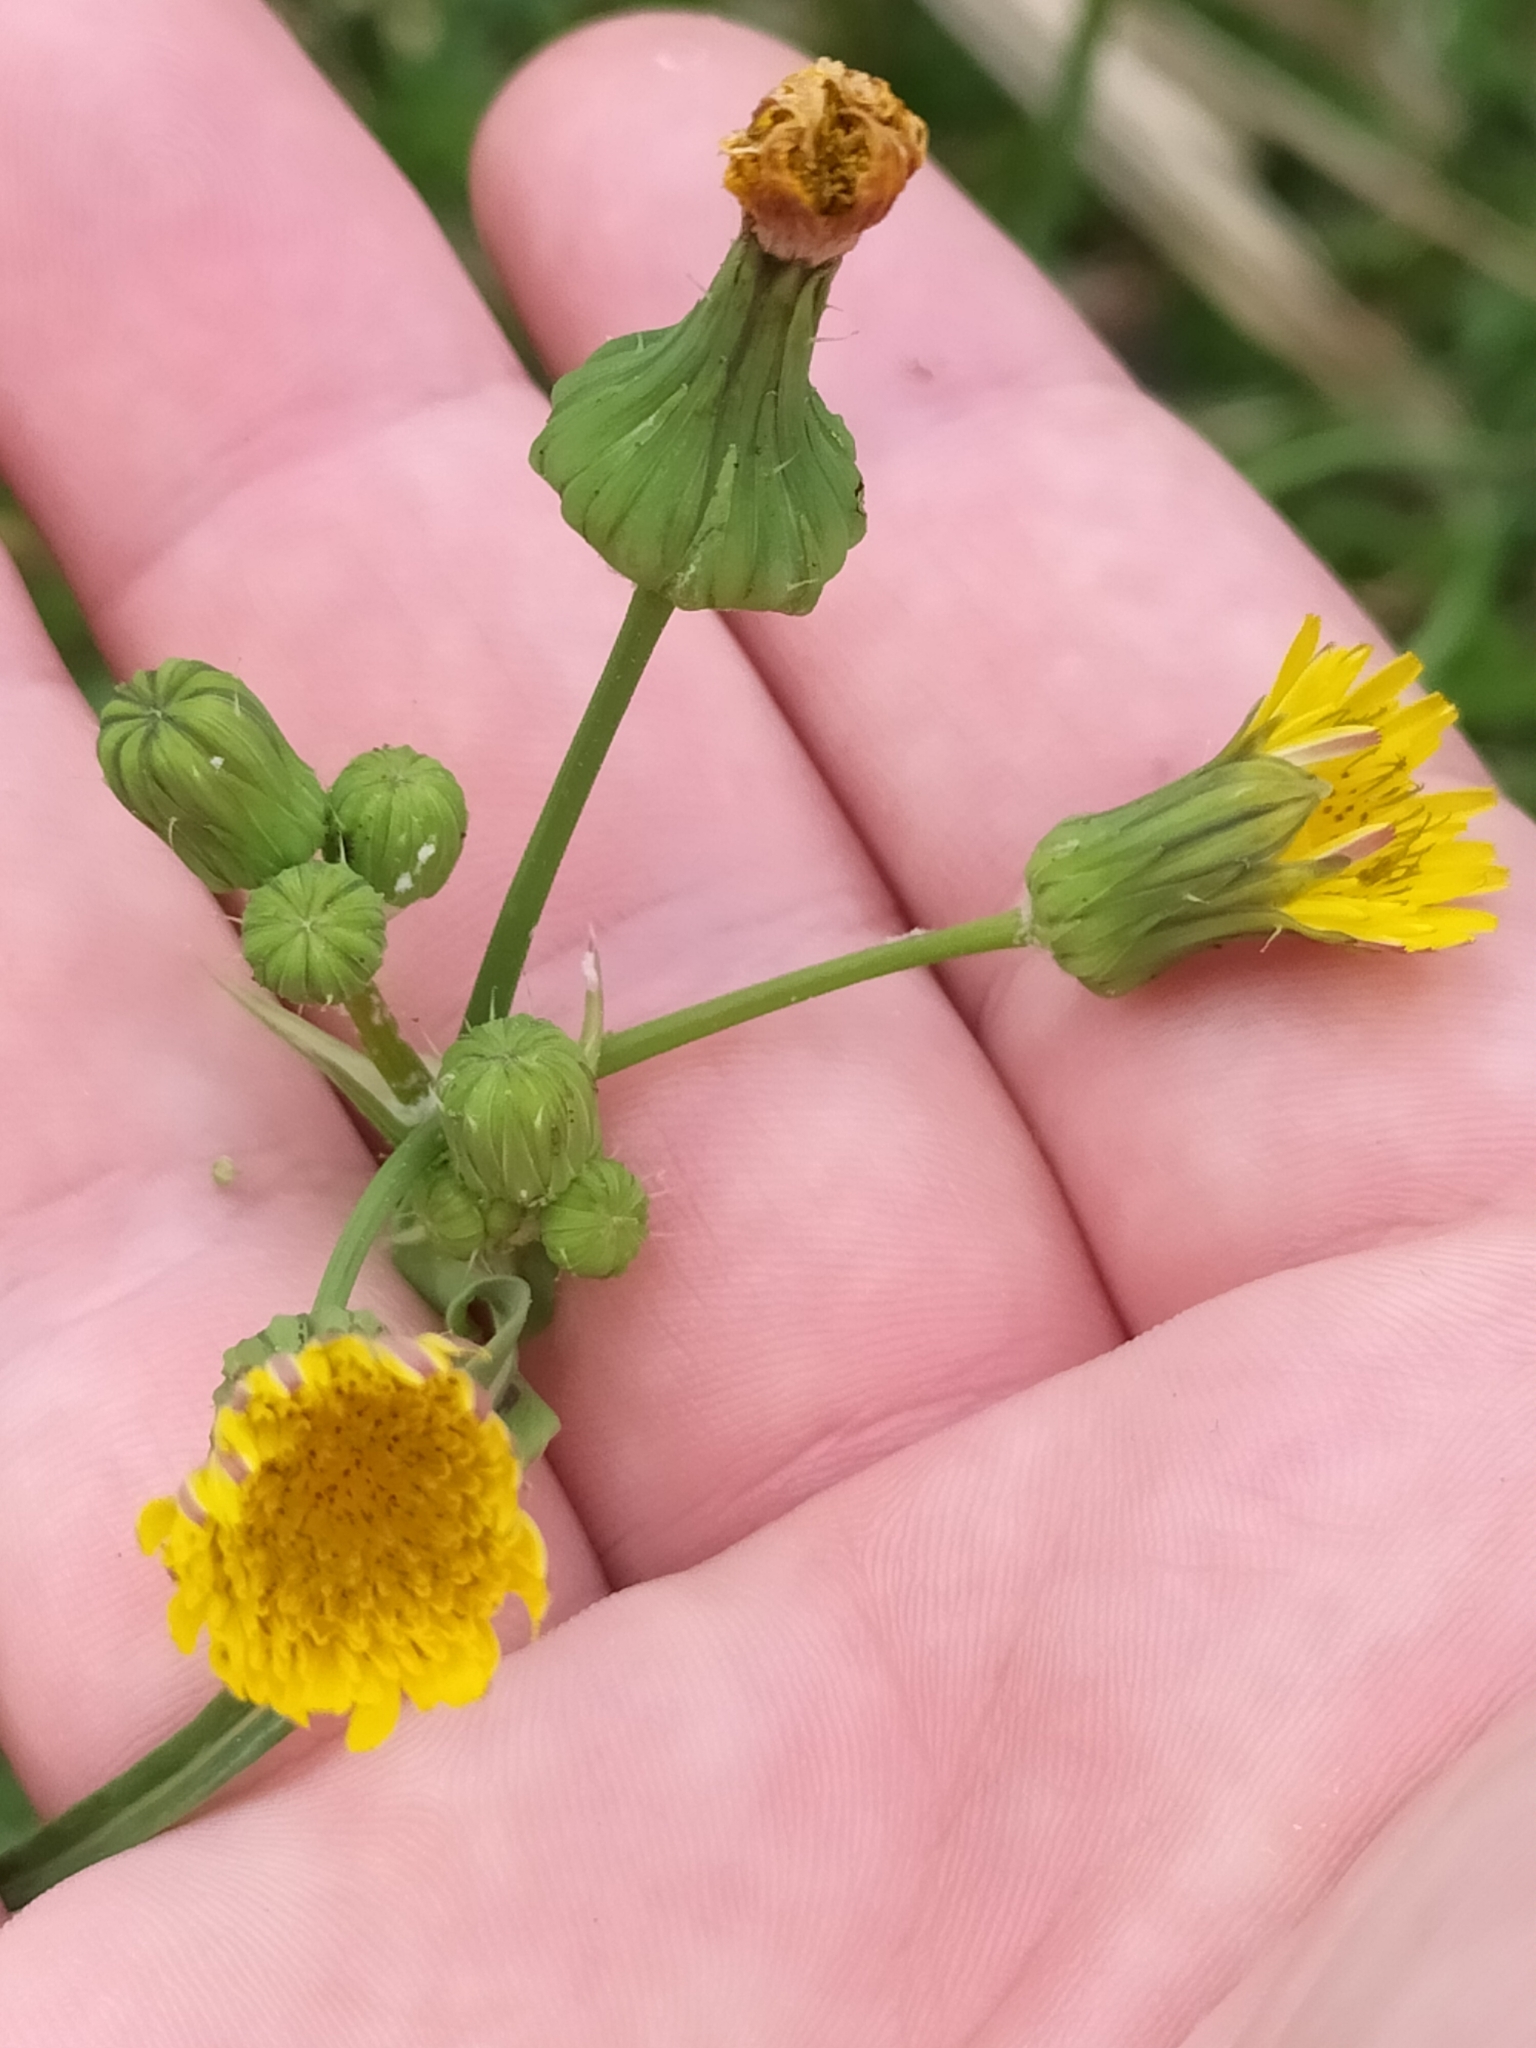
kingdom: Plantae
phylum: Tracheophyta
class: Magnoliopsida
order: Asterales
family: Asteraceae
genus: Sonchus
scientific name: Sonchus oleraceus
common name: Common sowthistle
